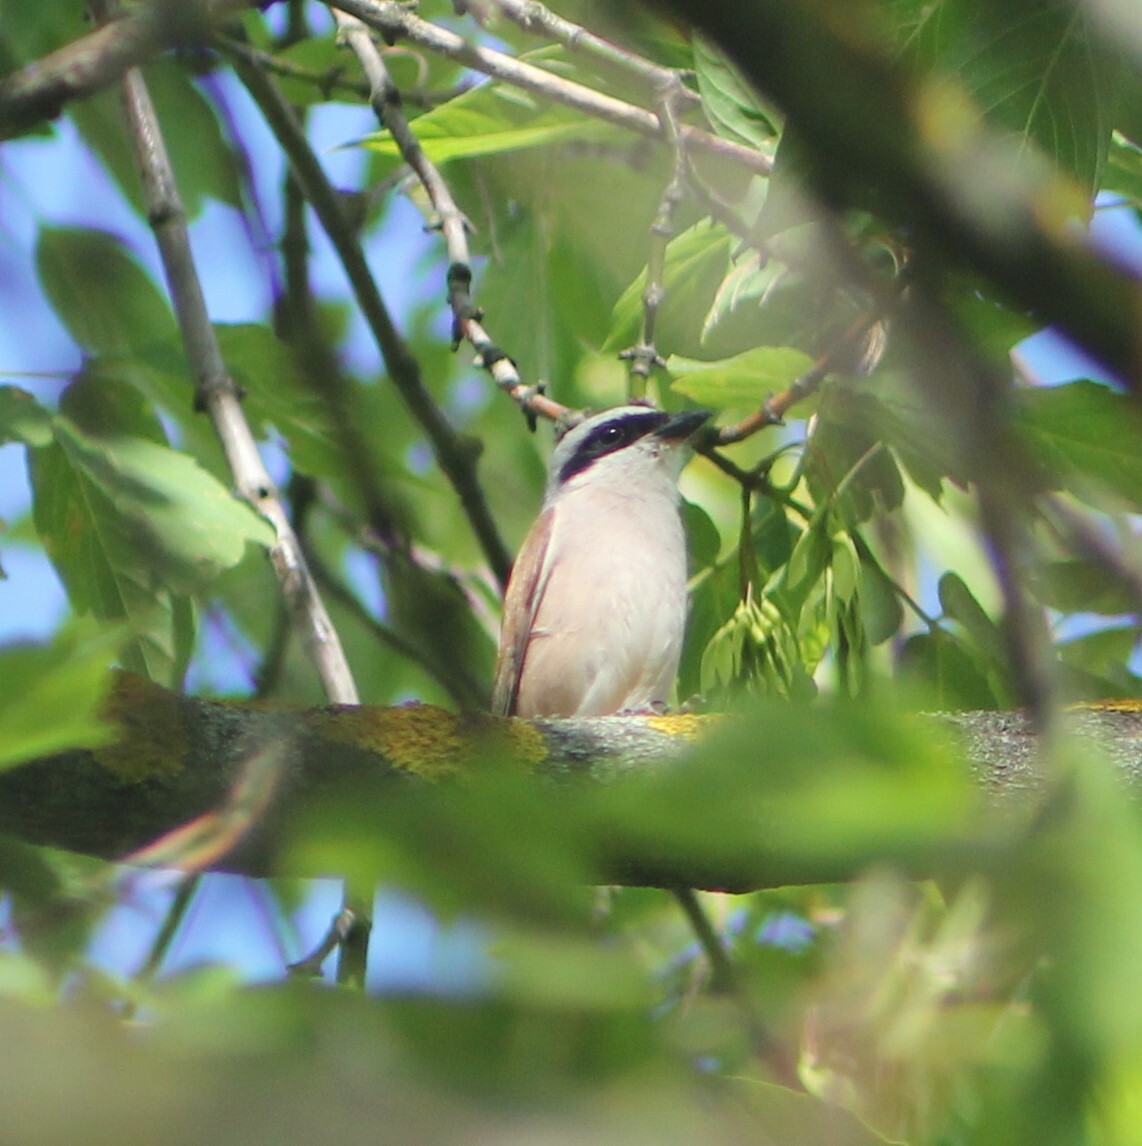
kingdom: Animalia
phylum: Chordata
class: Aves
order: Passeriformes
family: Laniidae
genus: Lanius
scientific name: Lanius collurio
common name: Red-backed shrike
